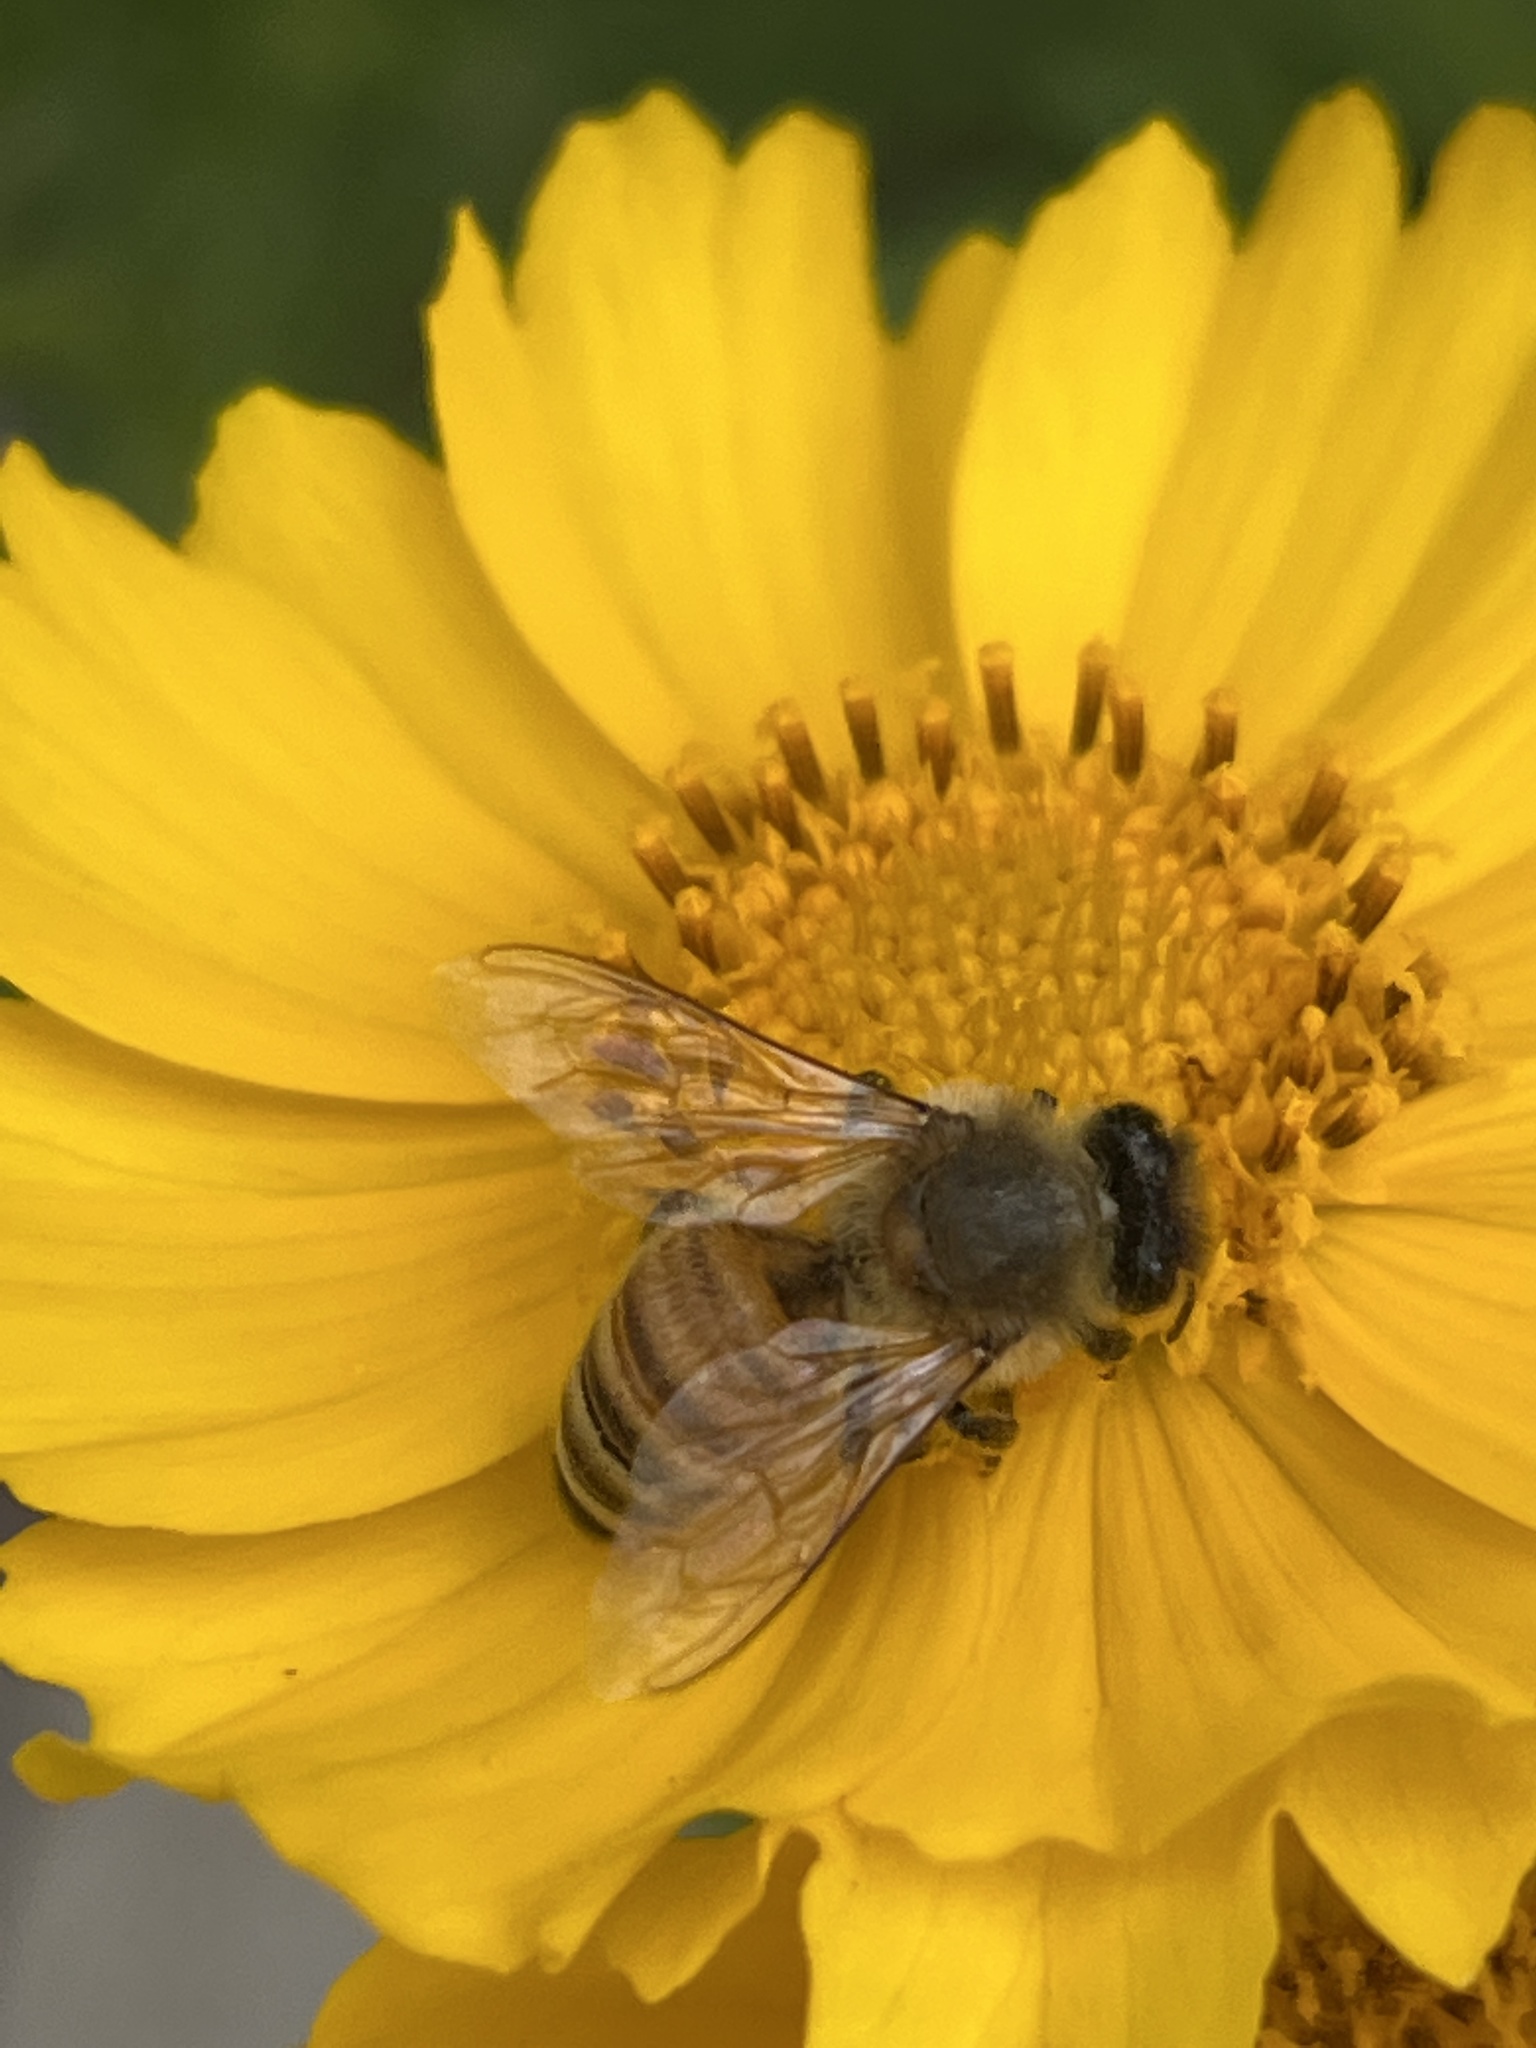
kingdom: Animalia
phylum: Arthropoda
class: Insecta
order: Hymenoptera
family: Apidae
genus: Apis
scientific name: Apis mellifera
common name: Honey bee
